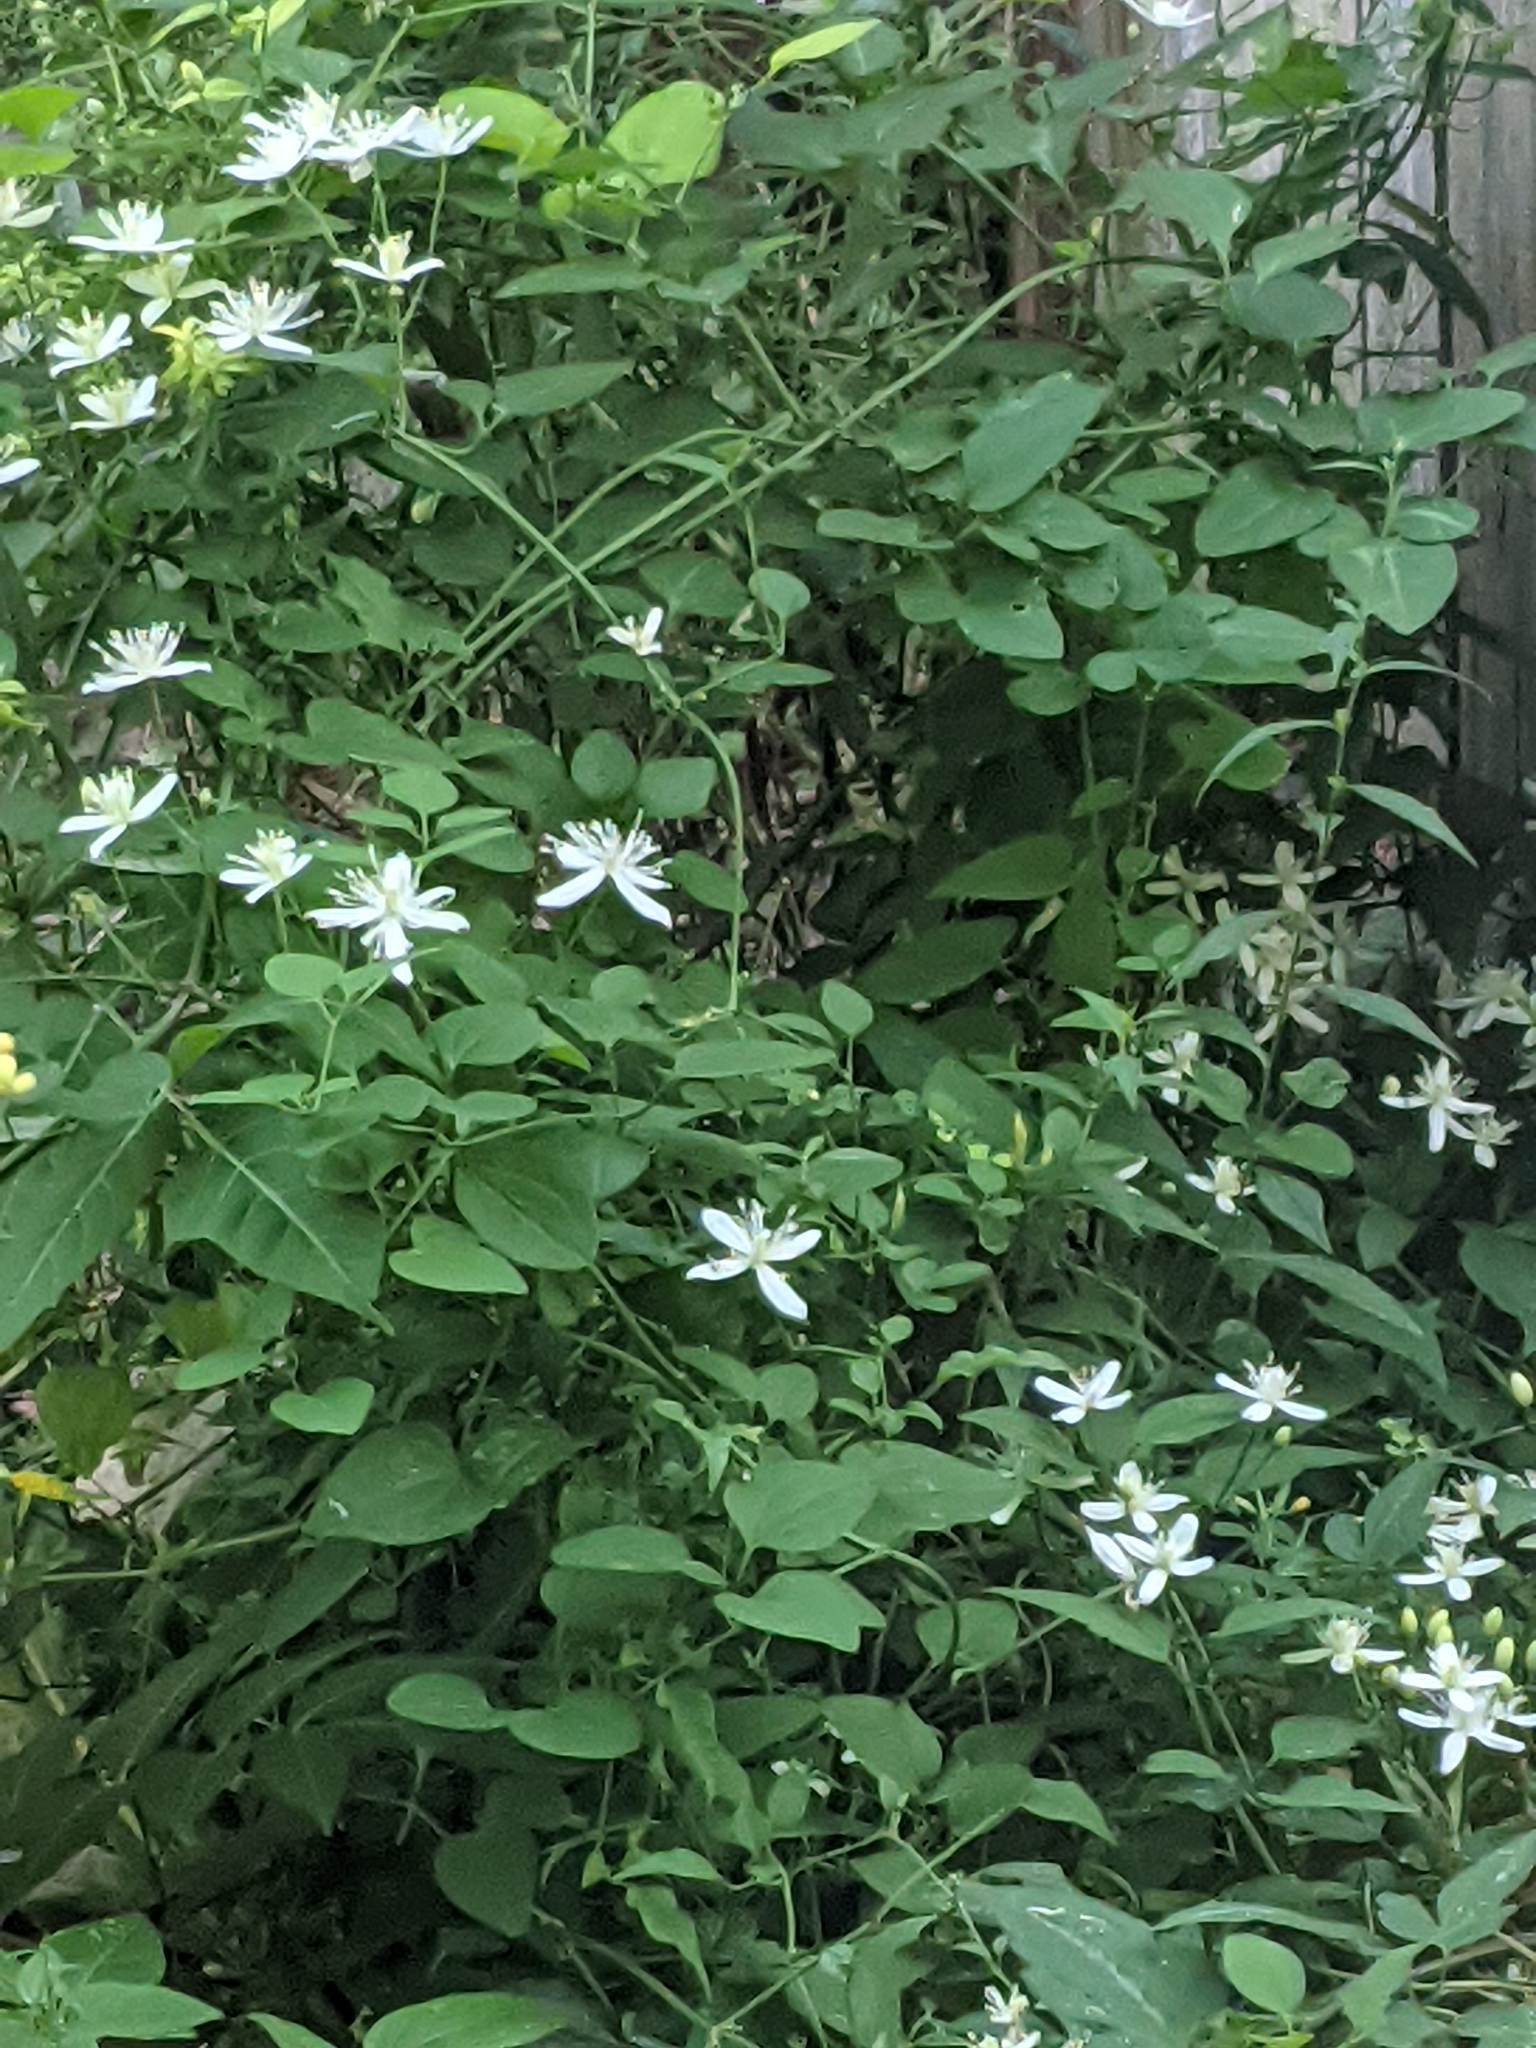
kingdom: Plantae
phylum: Tracheophyta
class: Magnoliopsida
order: Ranunculales
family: Ranunculaceae
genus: Clematis
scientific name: Clematis terniflora
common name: Sweet autumn clematis
